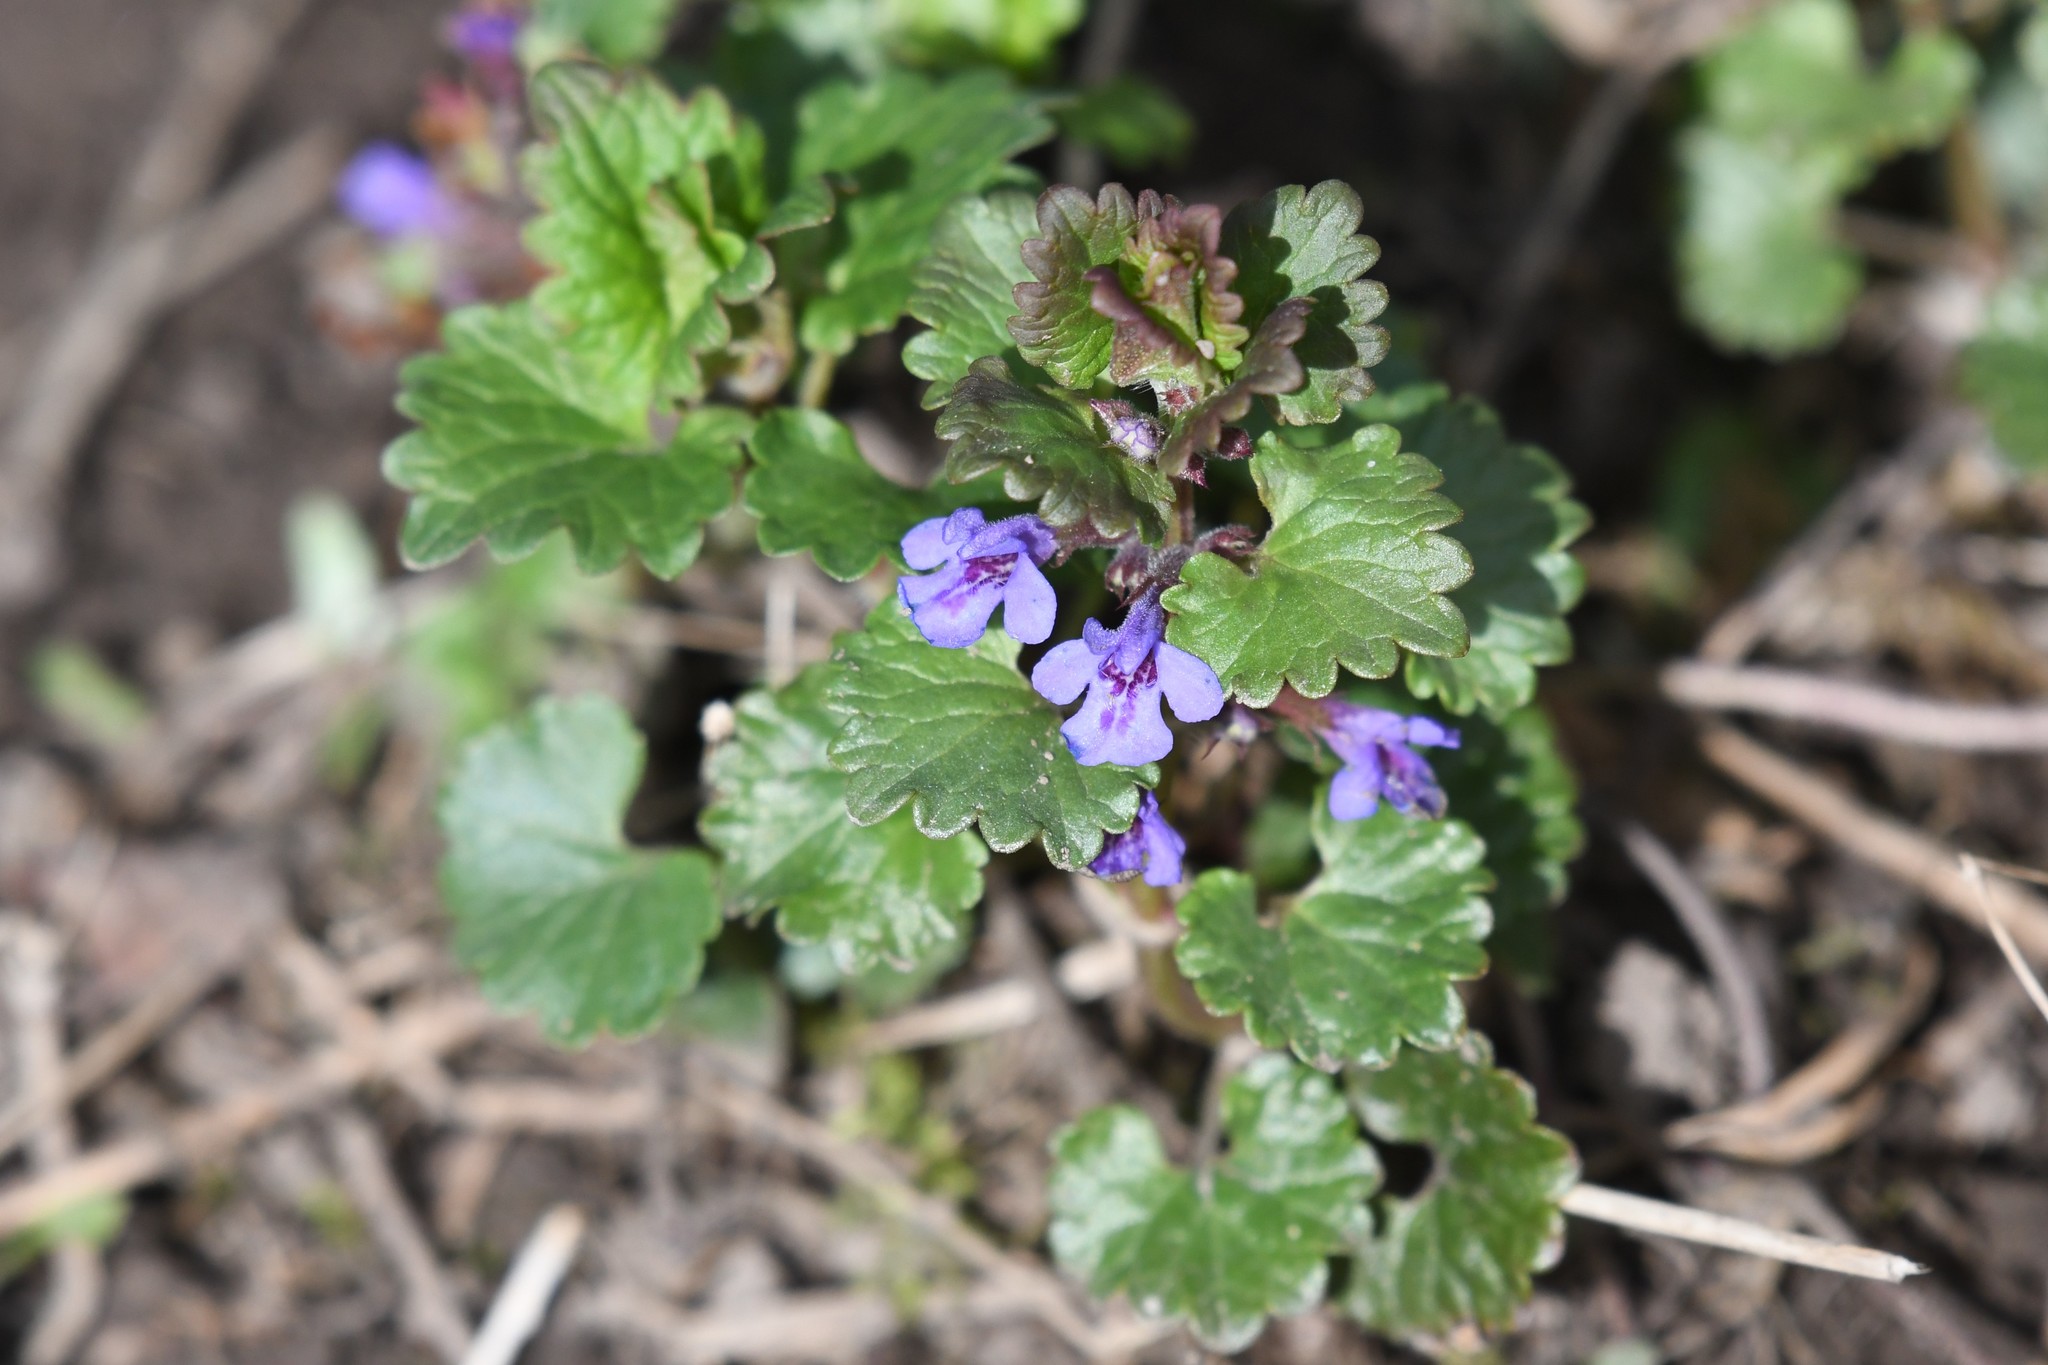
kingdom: Plantae
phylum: Tracheophyta
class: Magnoliopsida
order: Lamiales
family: Lamiaceae
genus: Glechoma
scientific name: Glechoma hederacea
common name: Ground ivy
